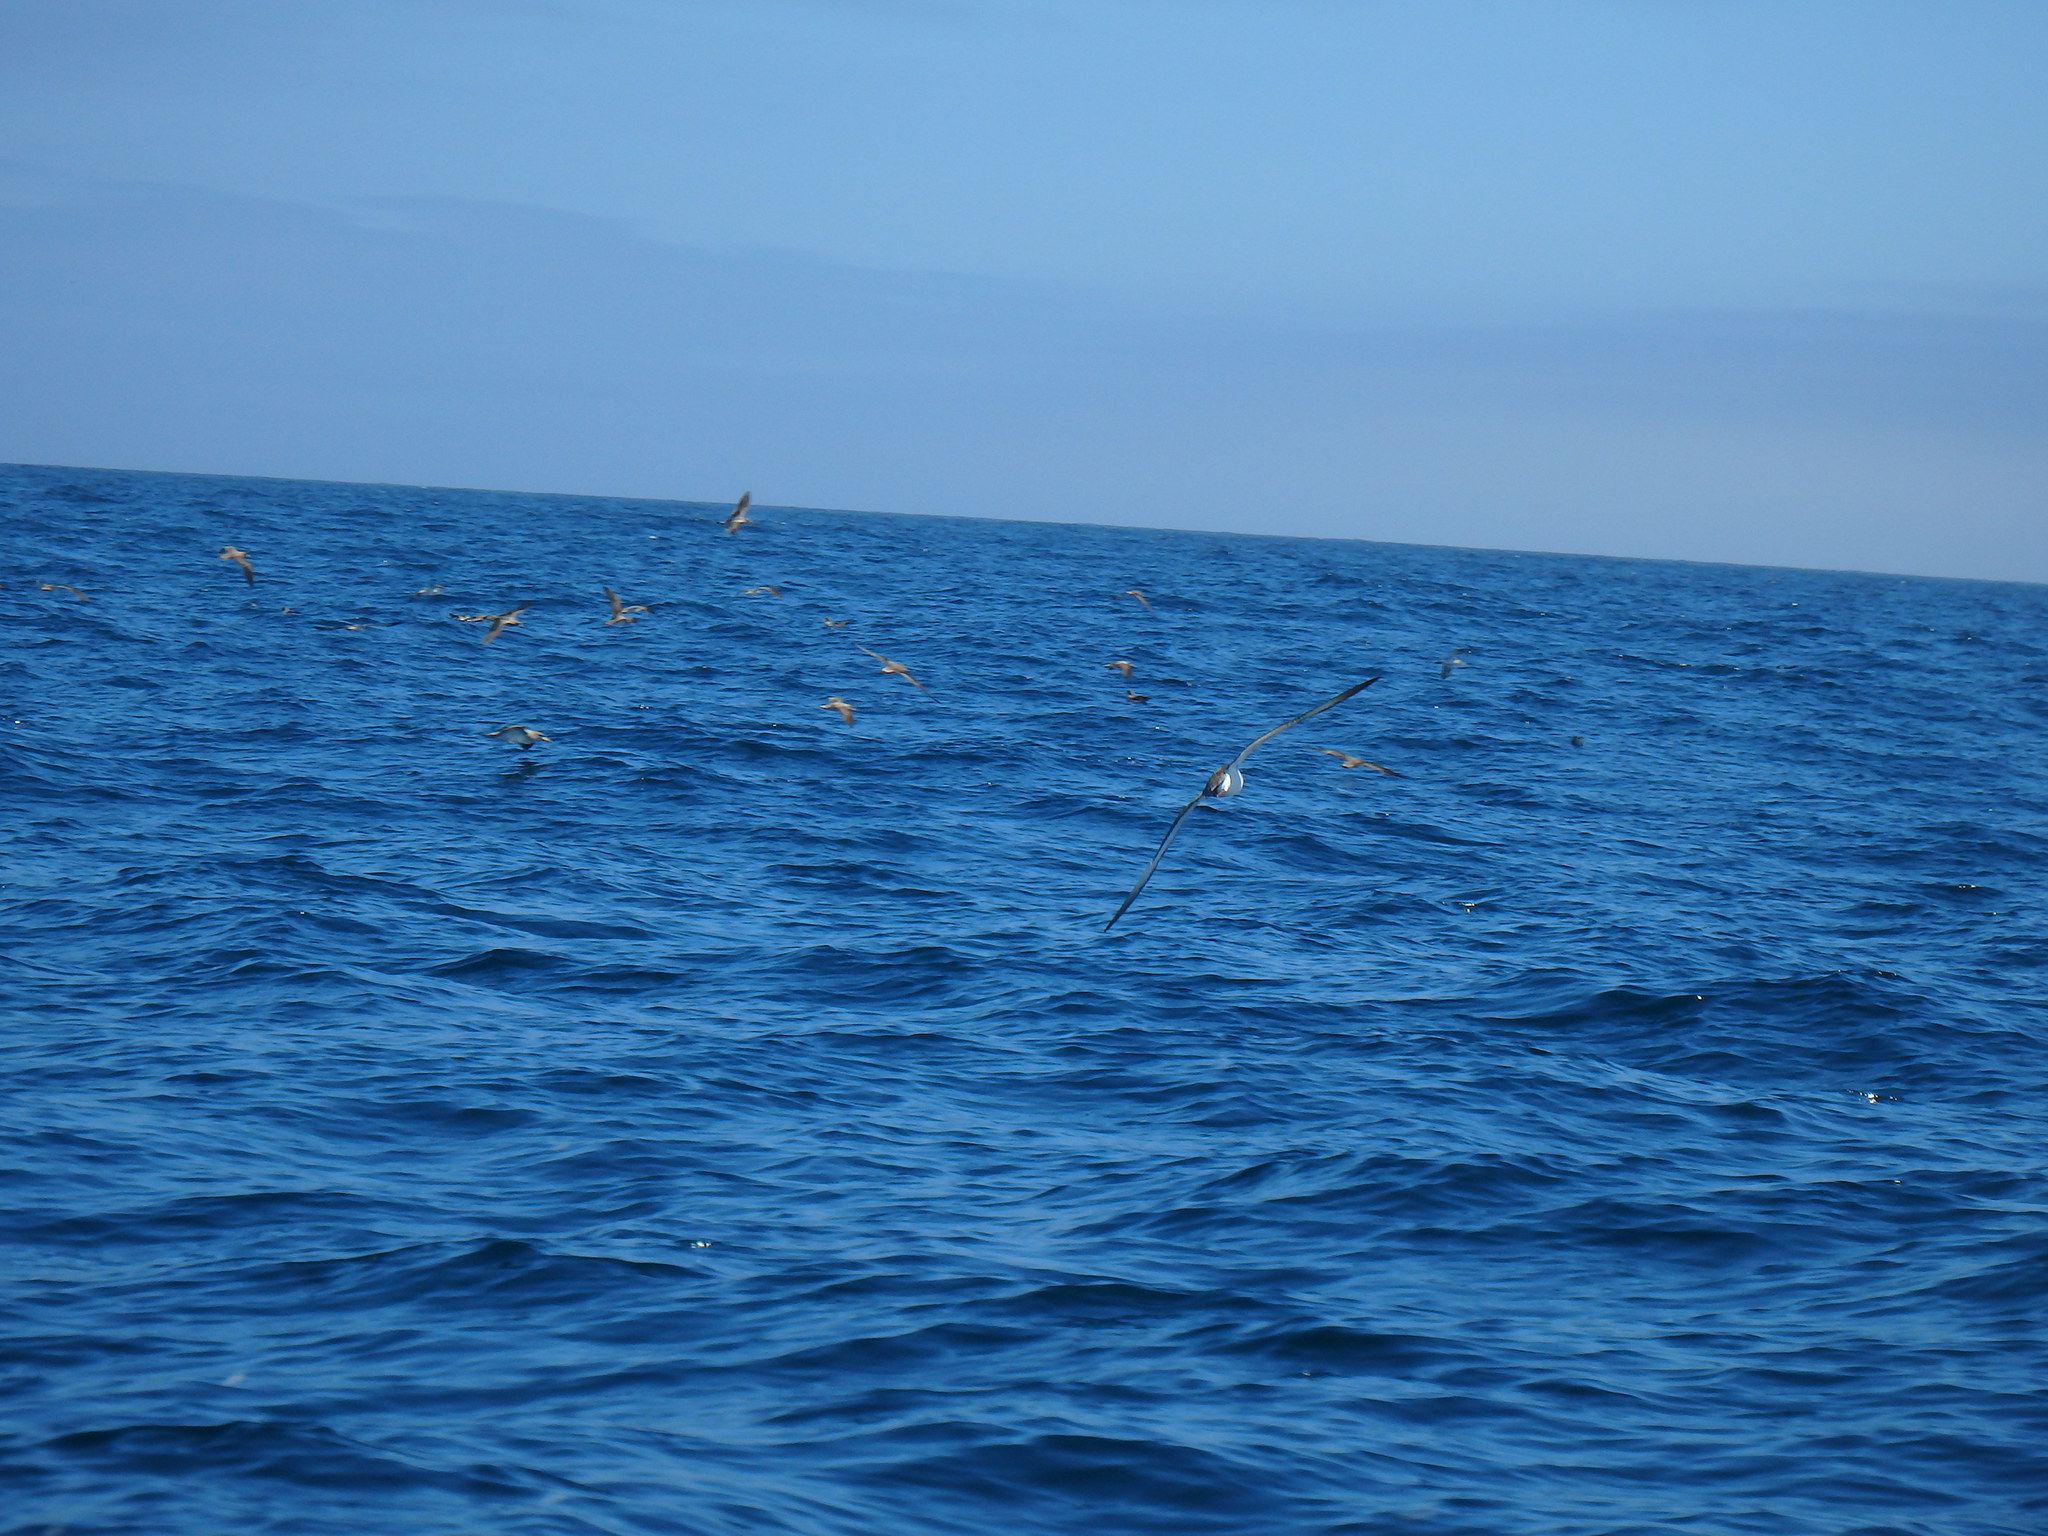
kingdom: Animalia
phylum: Chordata
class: Aves
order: Procellariiformes
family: Procellariidae
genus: Calonectris
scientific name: Calonectris diomedea
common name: Cory's shearwater
